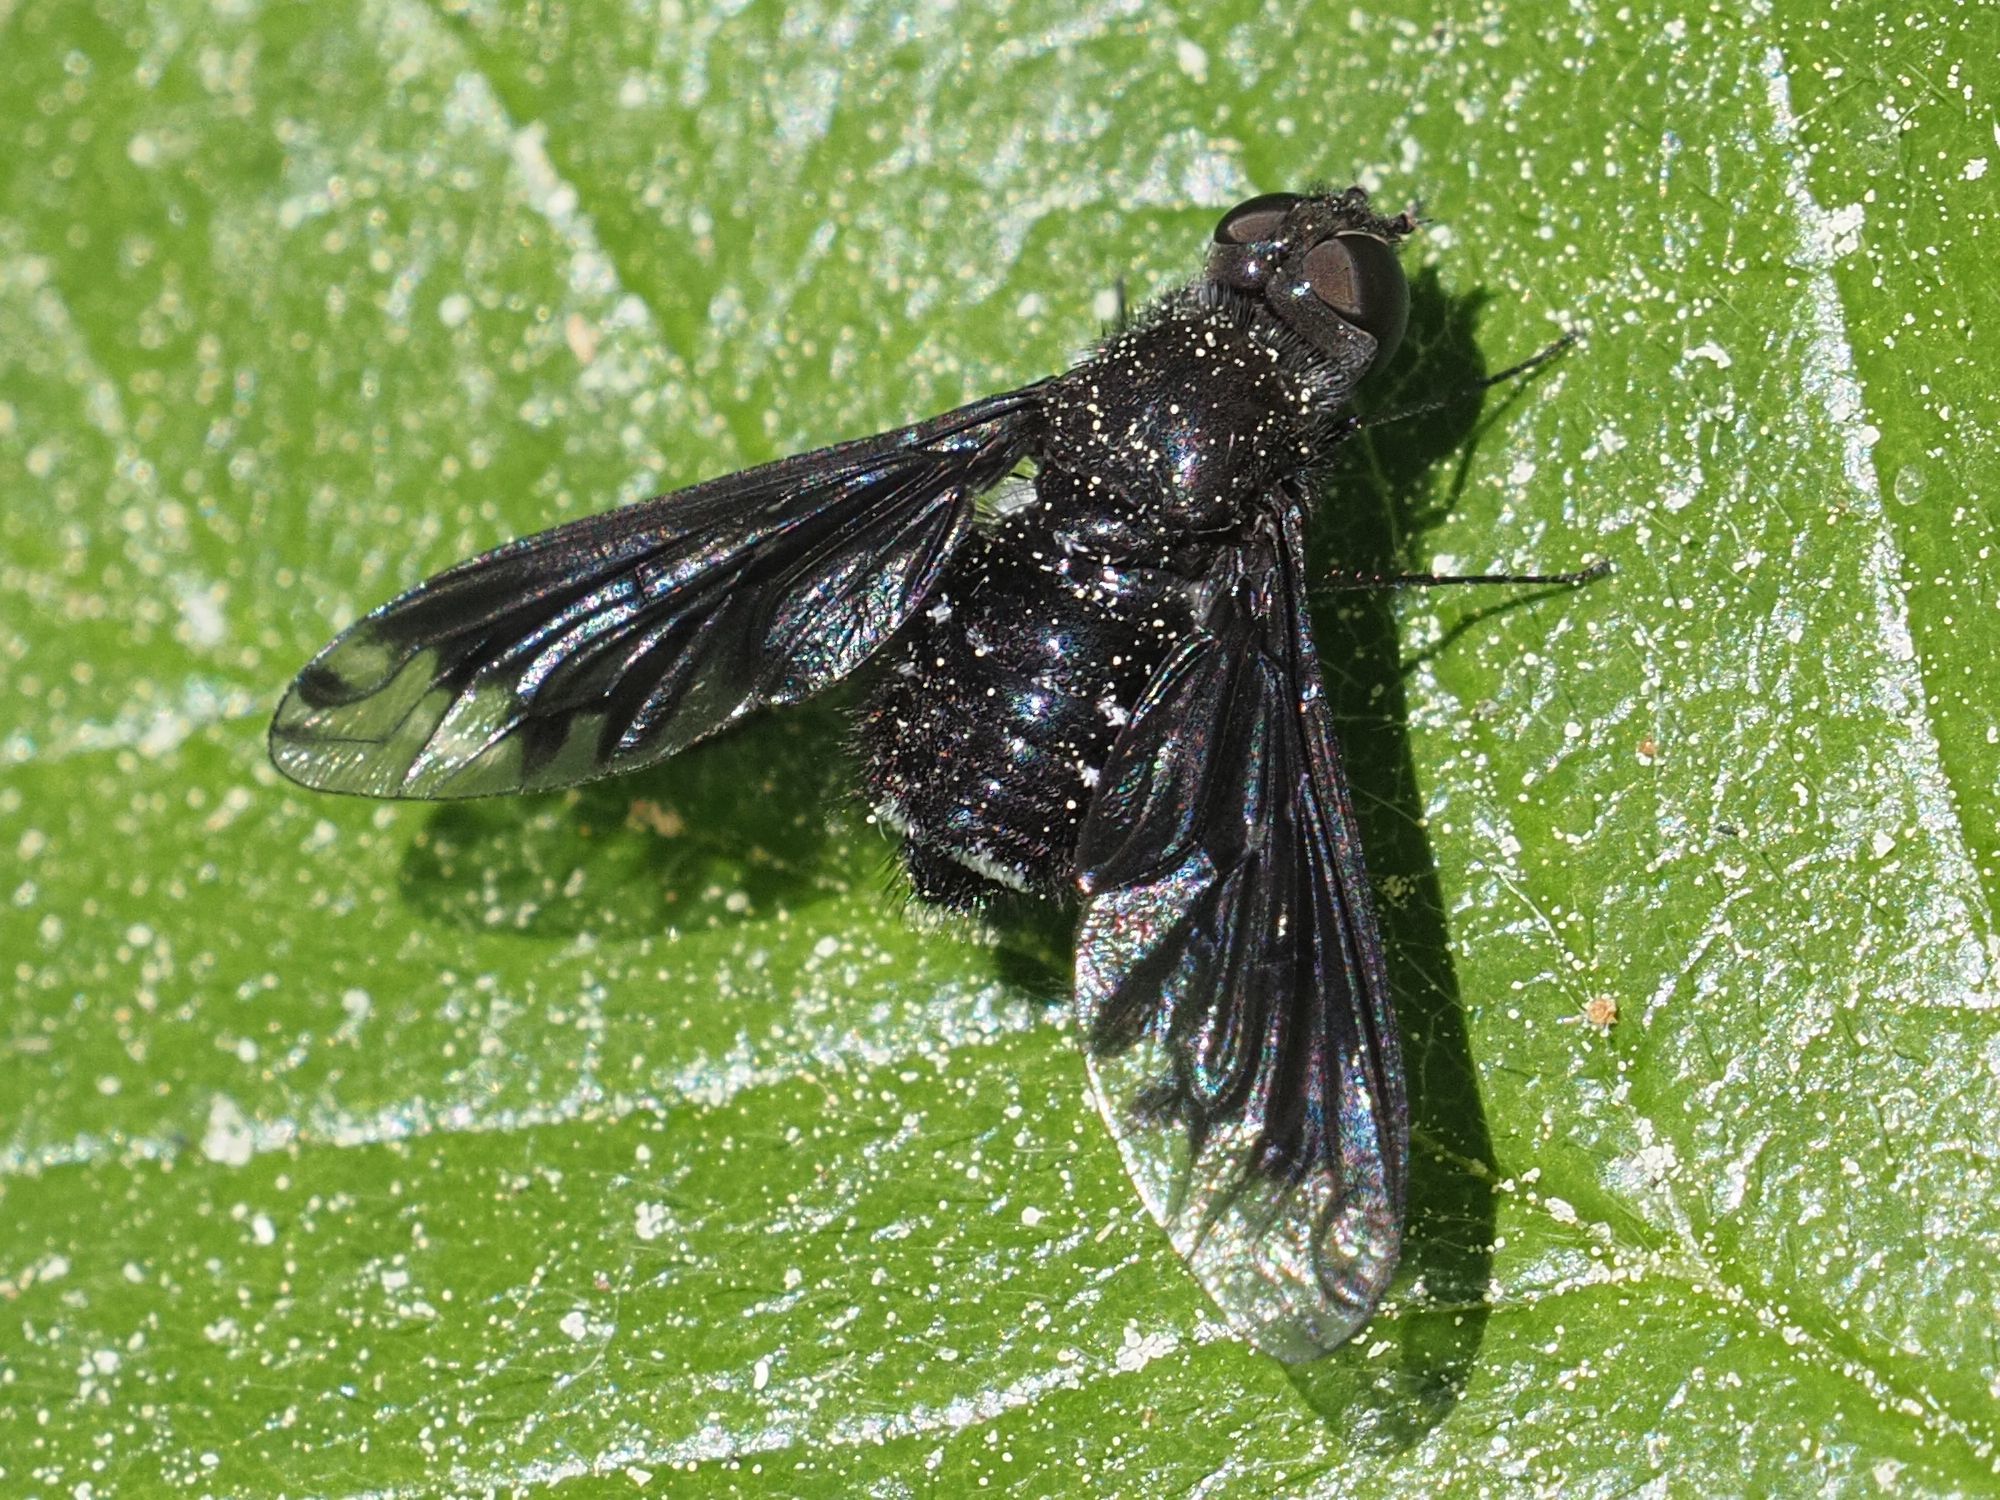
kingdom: Animalia
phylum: Arthropoda
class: Insecta
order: Diptera
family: Bombyliidae
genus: Anthrax
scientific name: Anthrax anthrax
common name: Anthracite bee-fly
